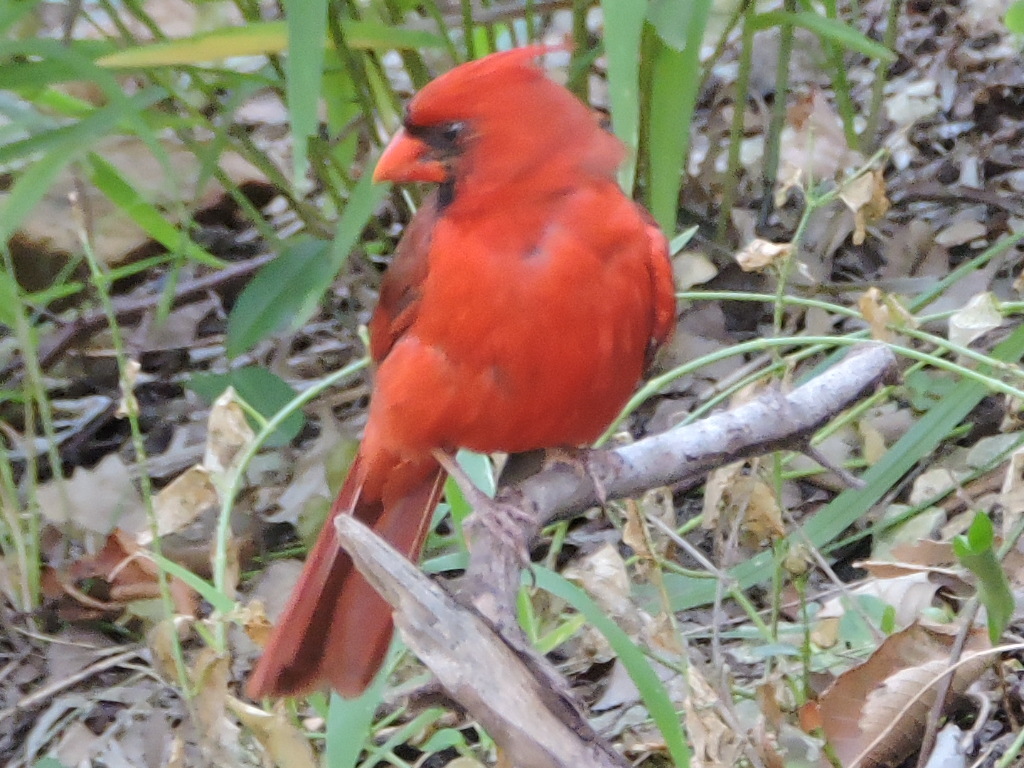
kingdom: Animalia
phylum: Chordata
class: Aves
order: Passeriformes
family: Cardinalidae
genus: Cardinalis
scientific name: Cardinalis cardinalis
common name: Northern cardinal
